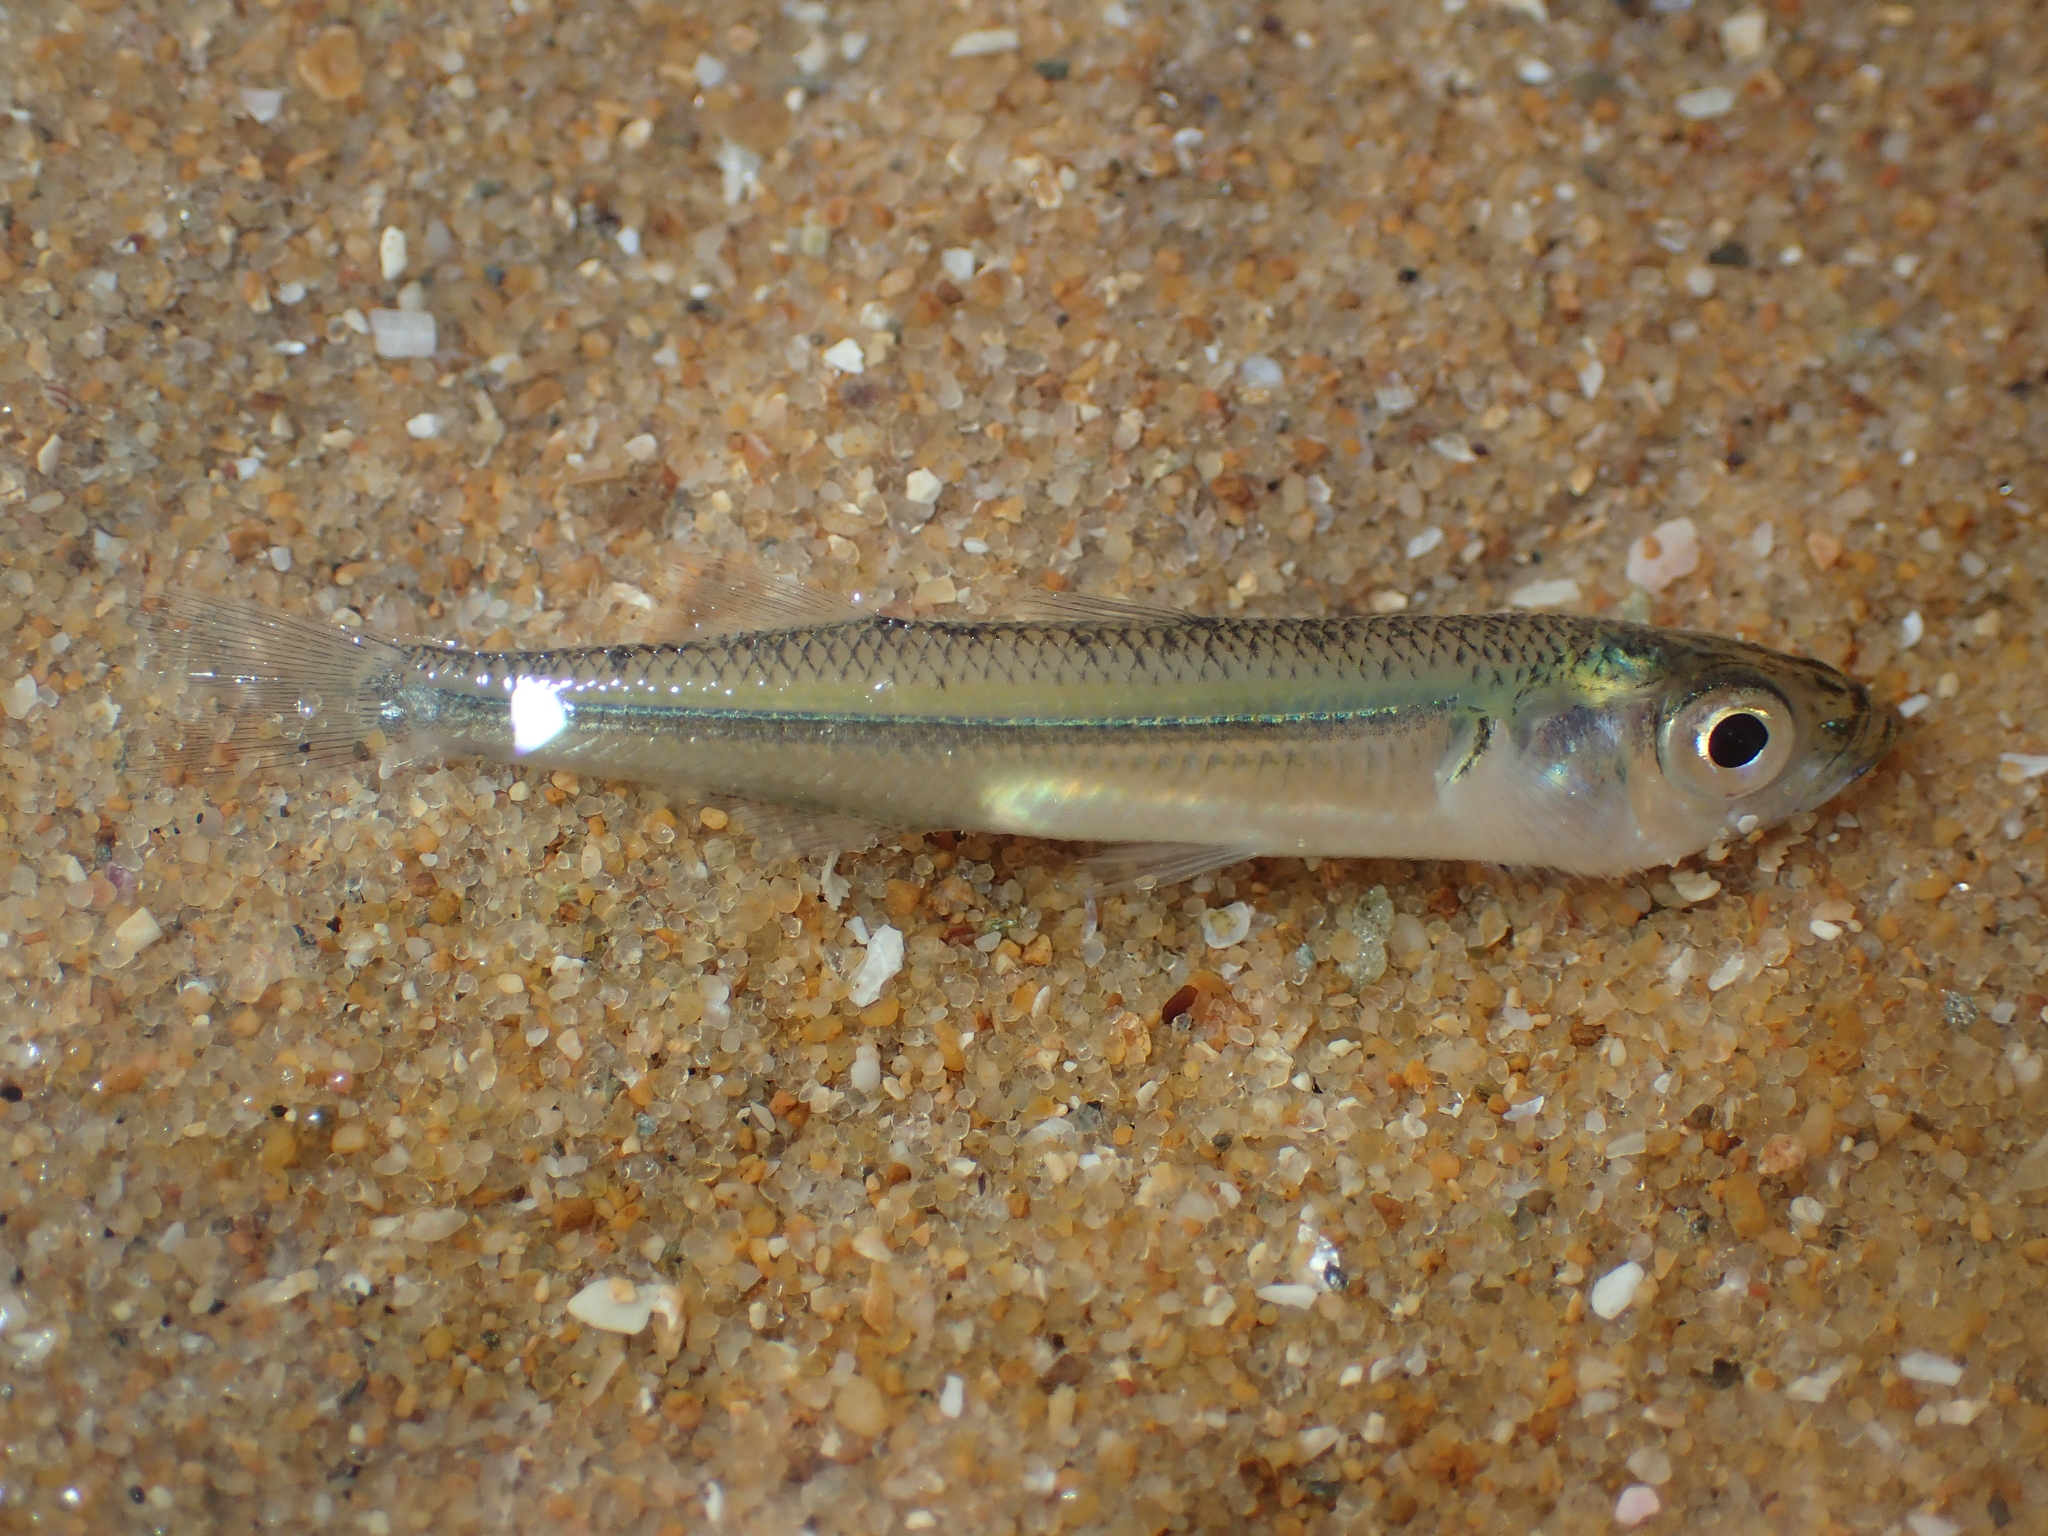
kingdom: Animalia
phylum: Chordata
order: Atheriniformes
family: Atherinidae
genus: Atherina
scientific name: Atherina boyeri
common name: Big-scale sand smelt
